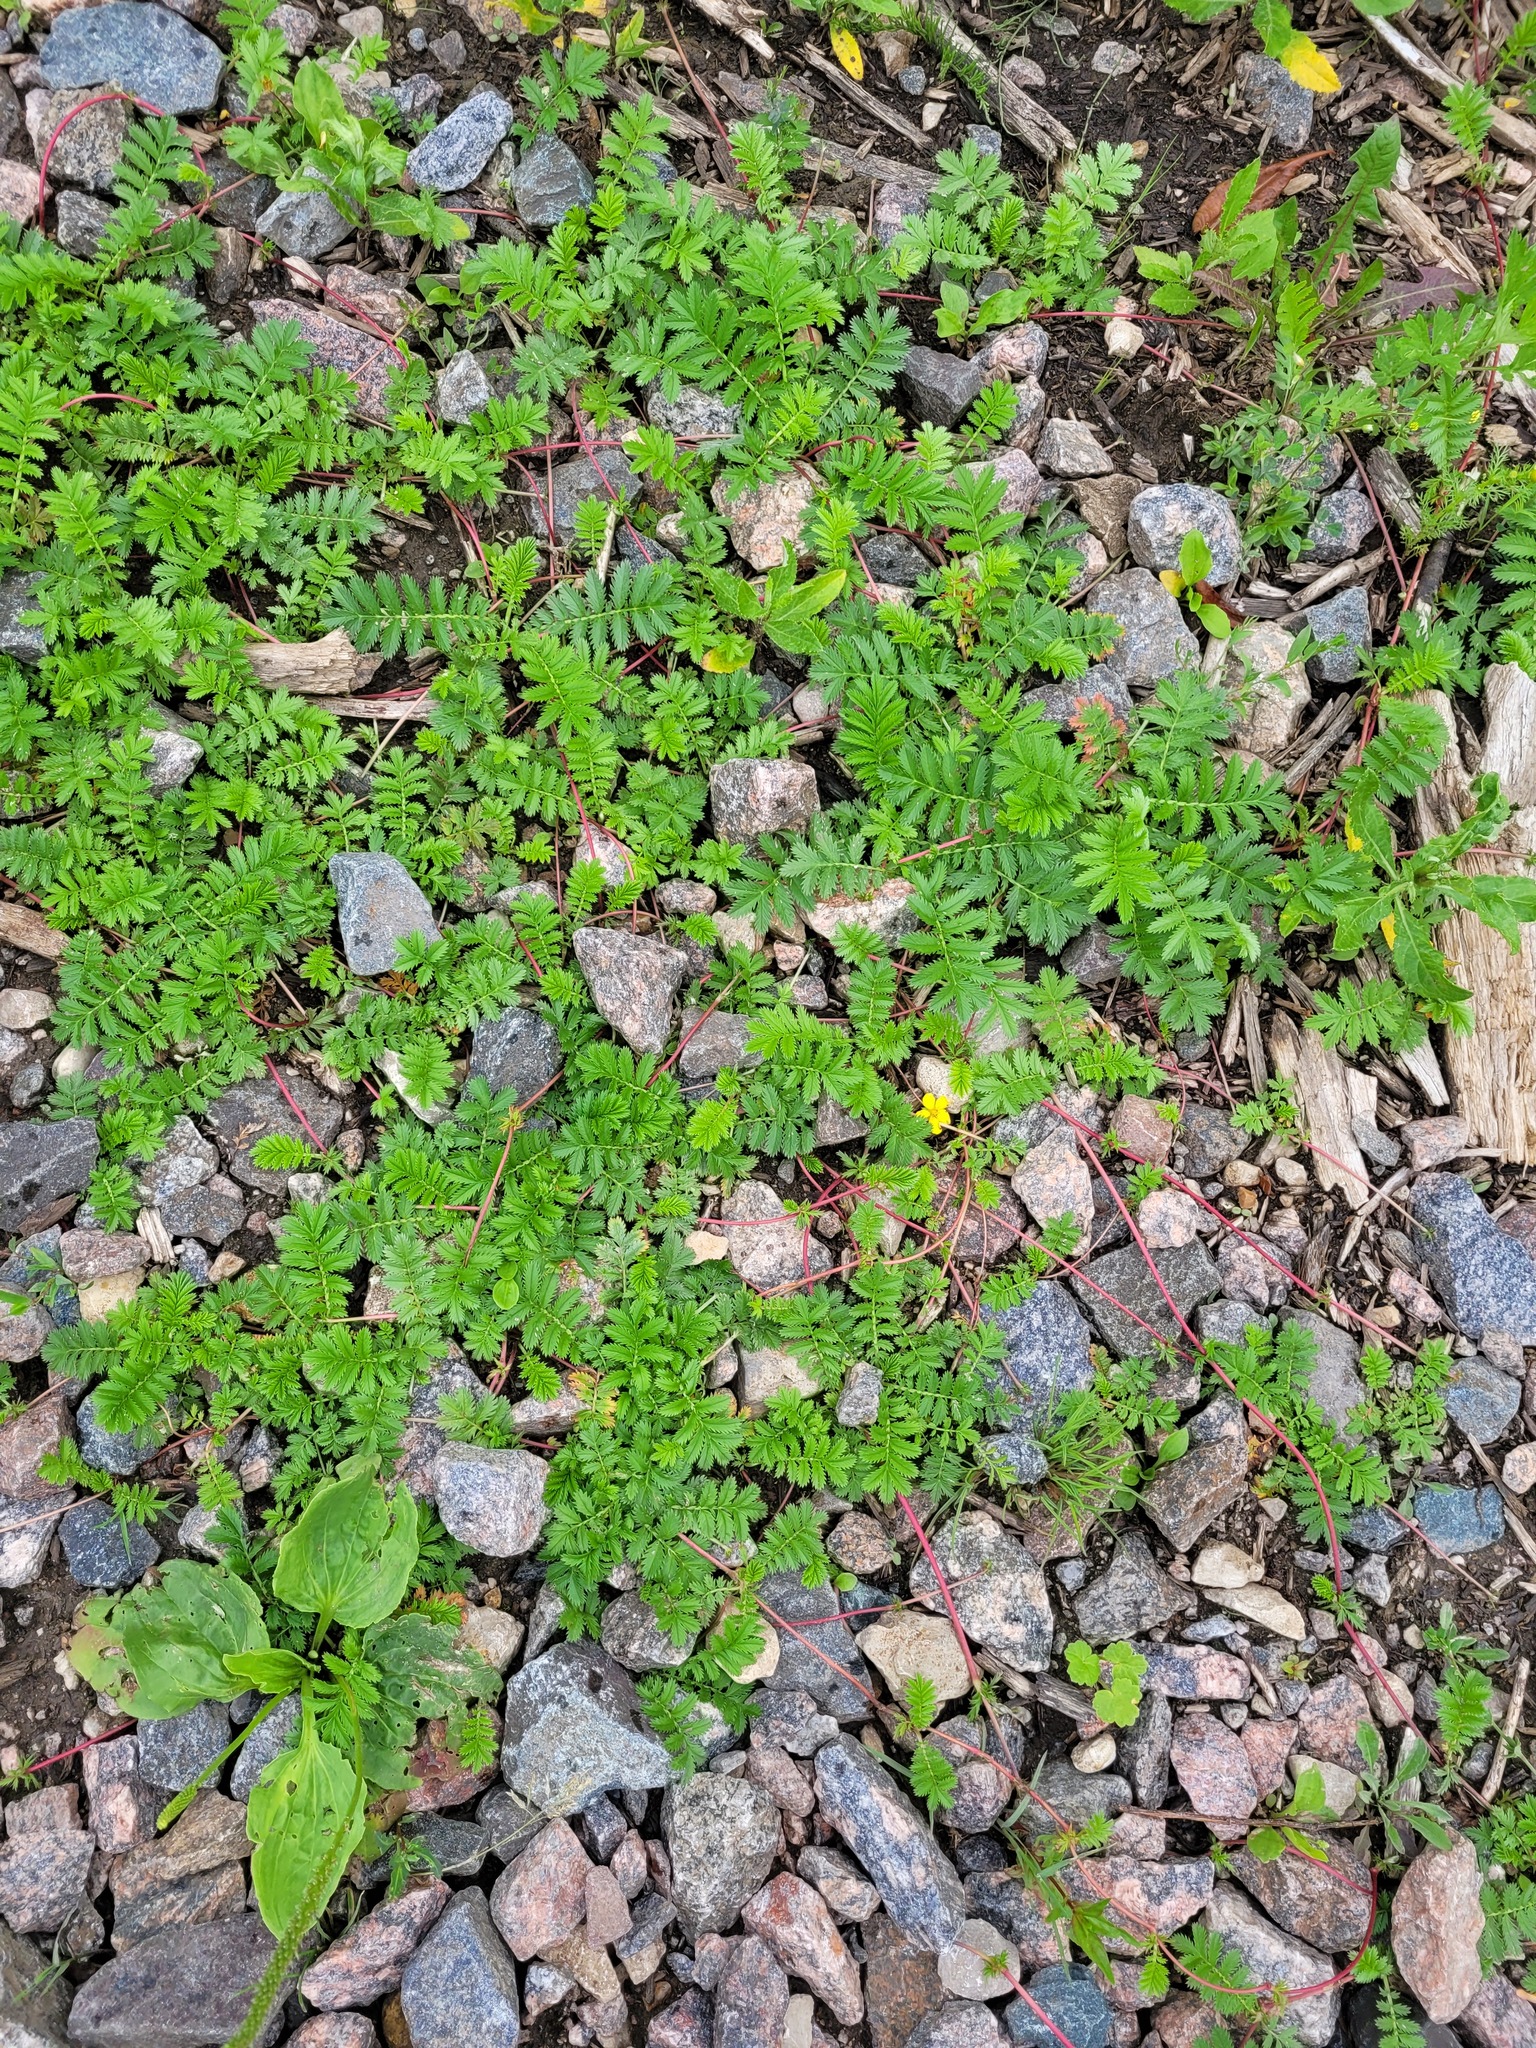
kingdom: Plantae
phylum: Tracheophyta
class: Magnoliopsida
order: Rosales
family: Rosaceae
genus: Argentina
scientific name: Argentina anserina
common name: Common silverweed
